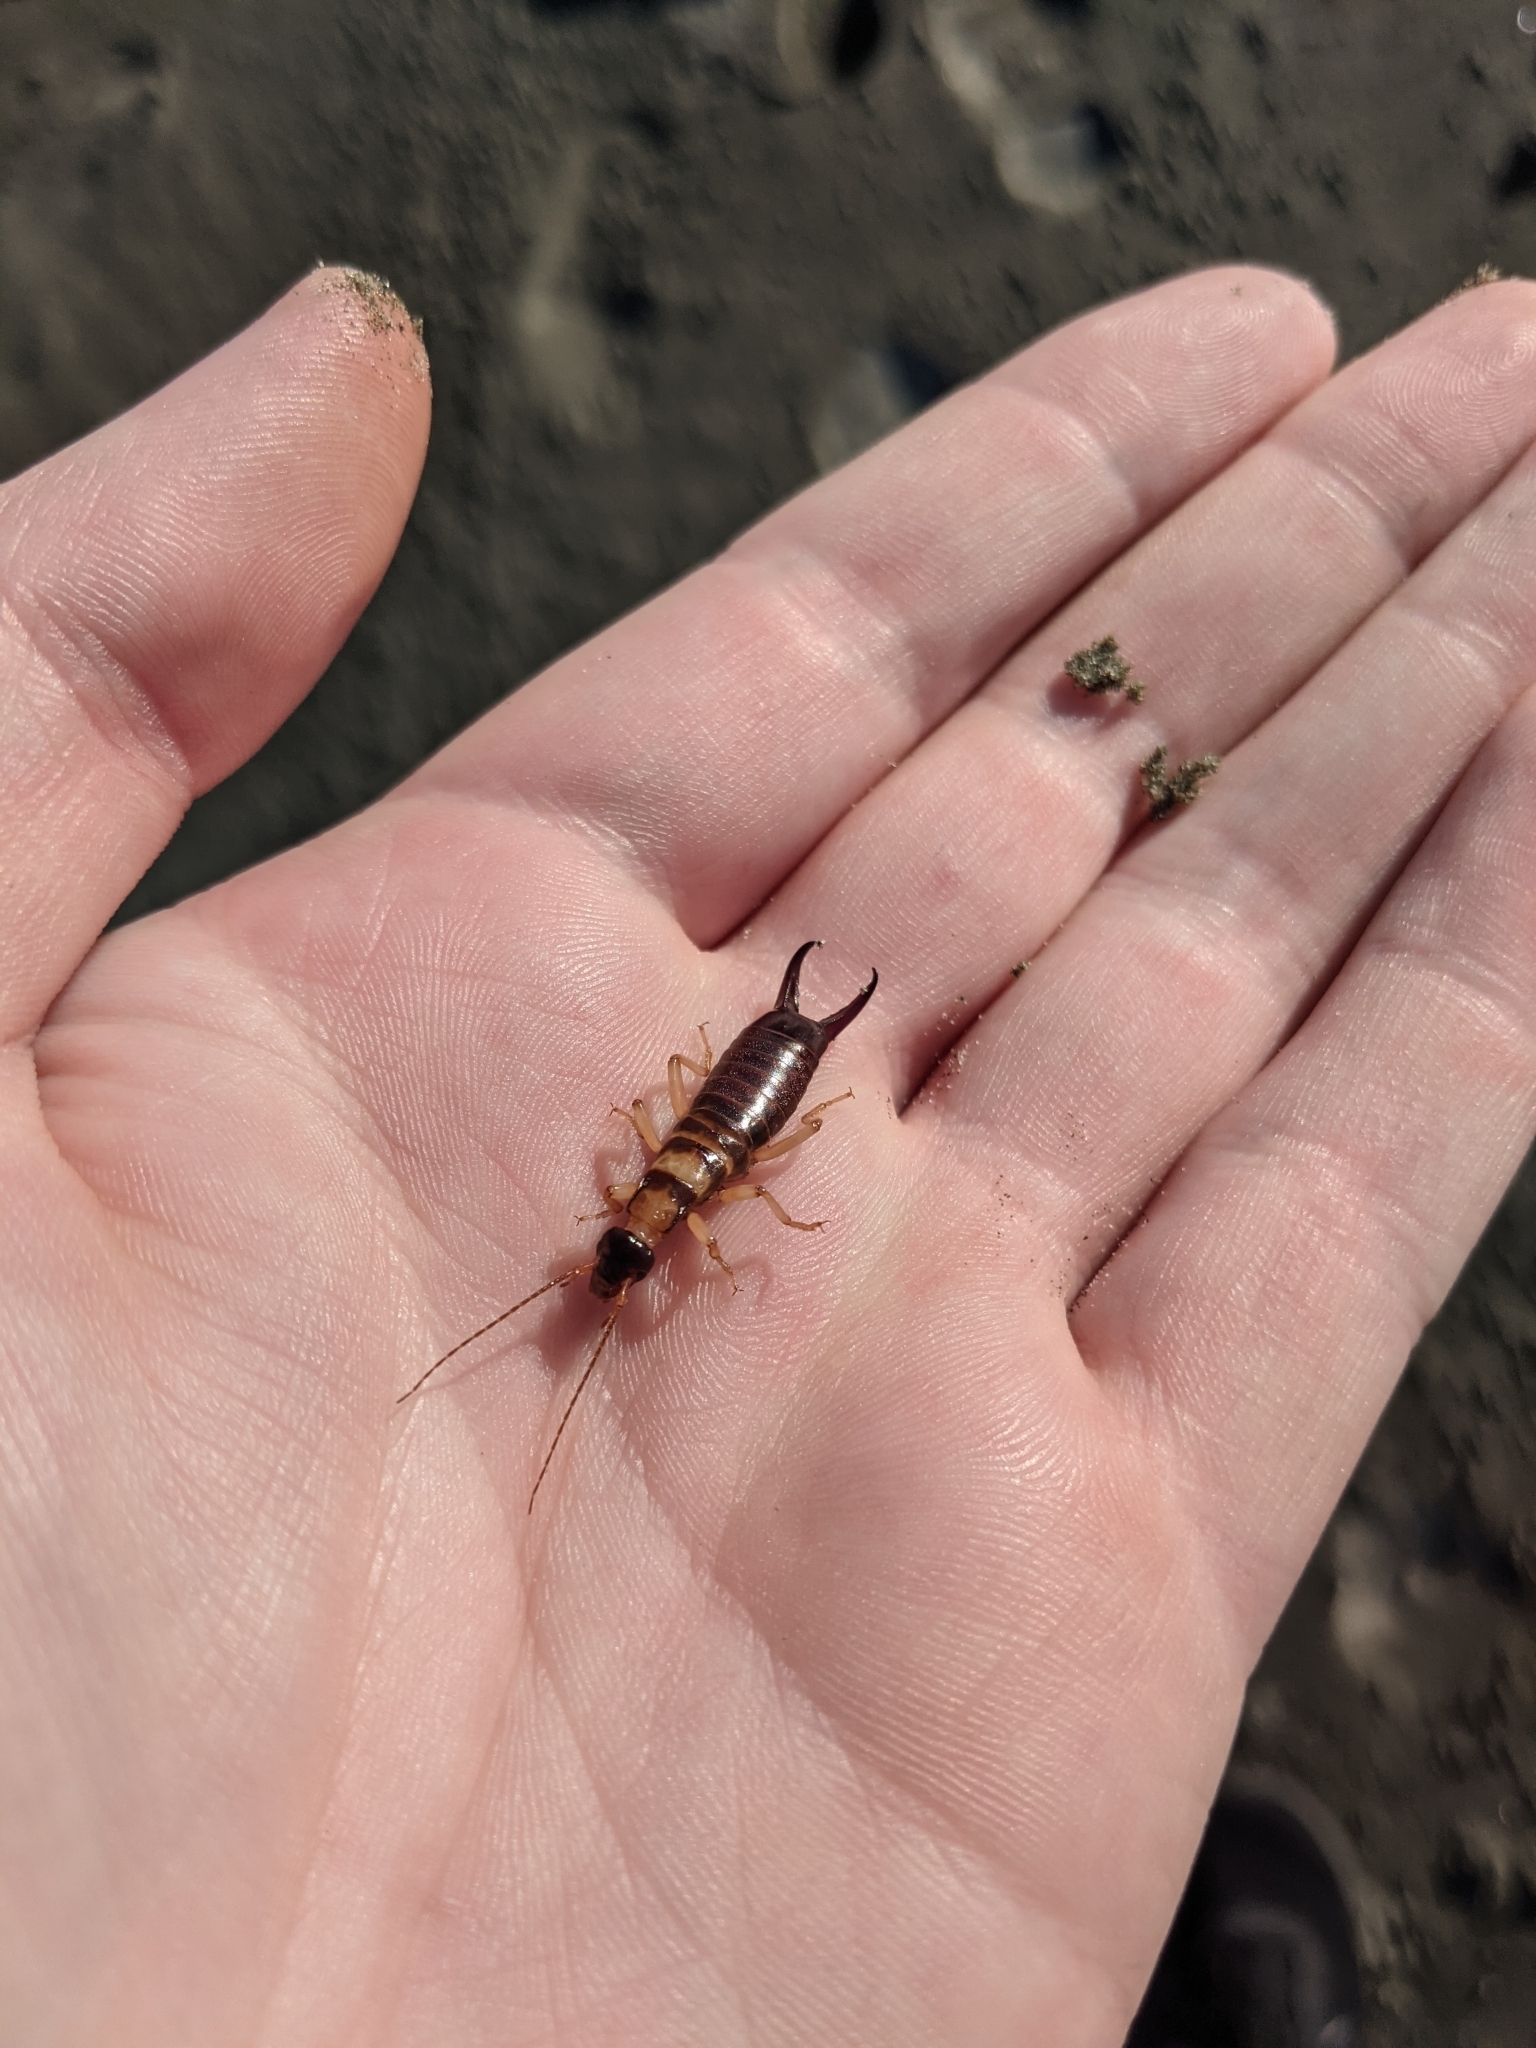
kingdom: Animalia
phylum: Arthropoda
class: Insecta
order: Dermaptera
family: Anisolabididae
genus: Anisolabis
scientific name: Anisolabis littorea
